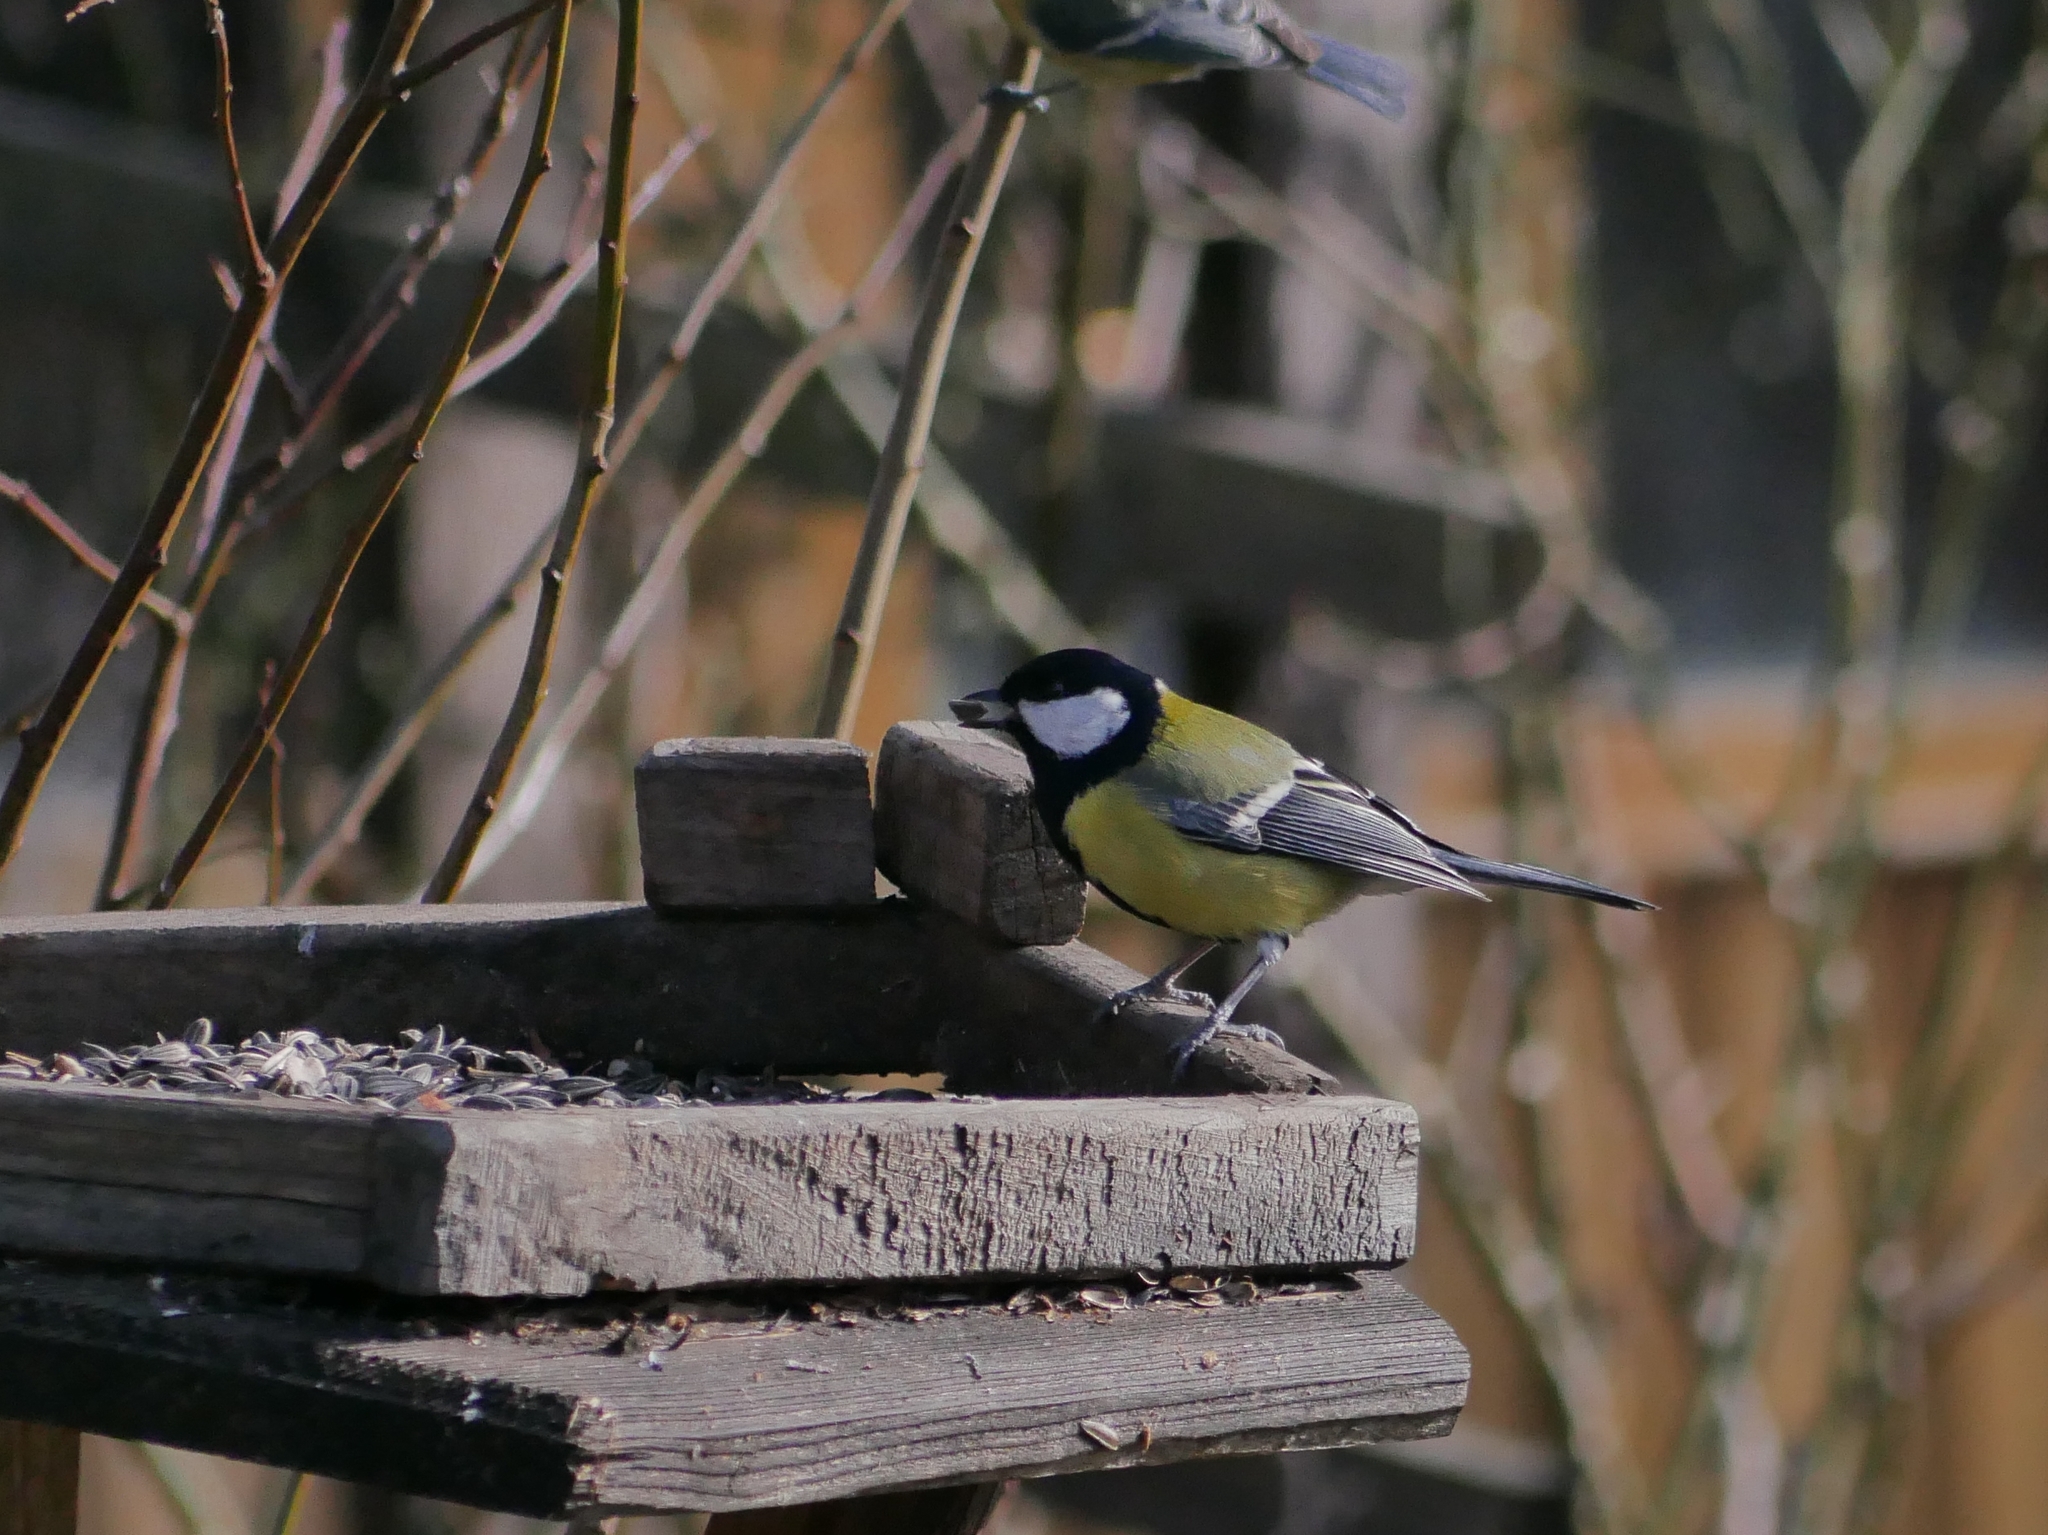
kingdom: Animalia
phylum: Chordata
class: Aves
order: Passeriformes
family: Paridae
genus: Parus
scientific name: Parus major
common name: Great tit
